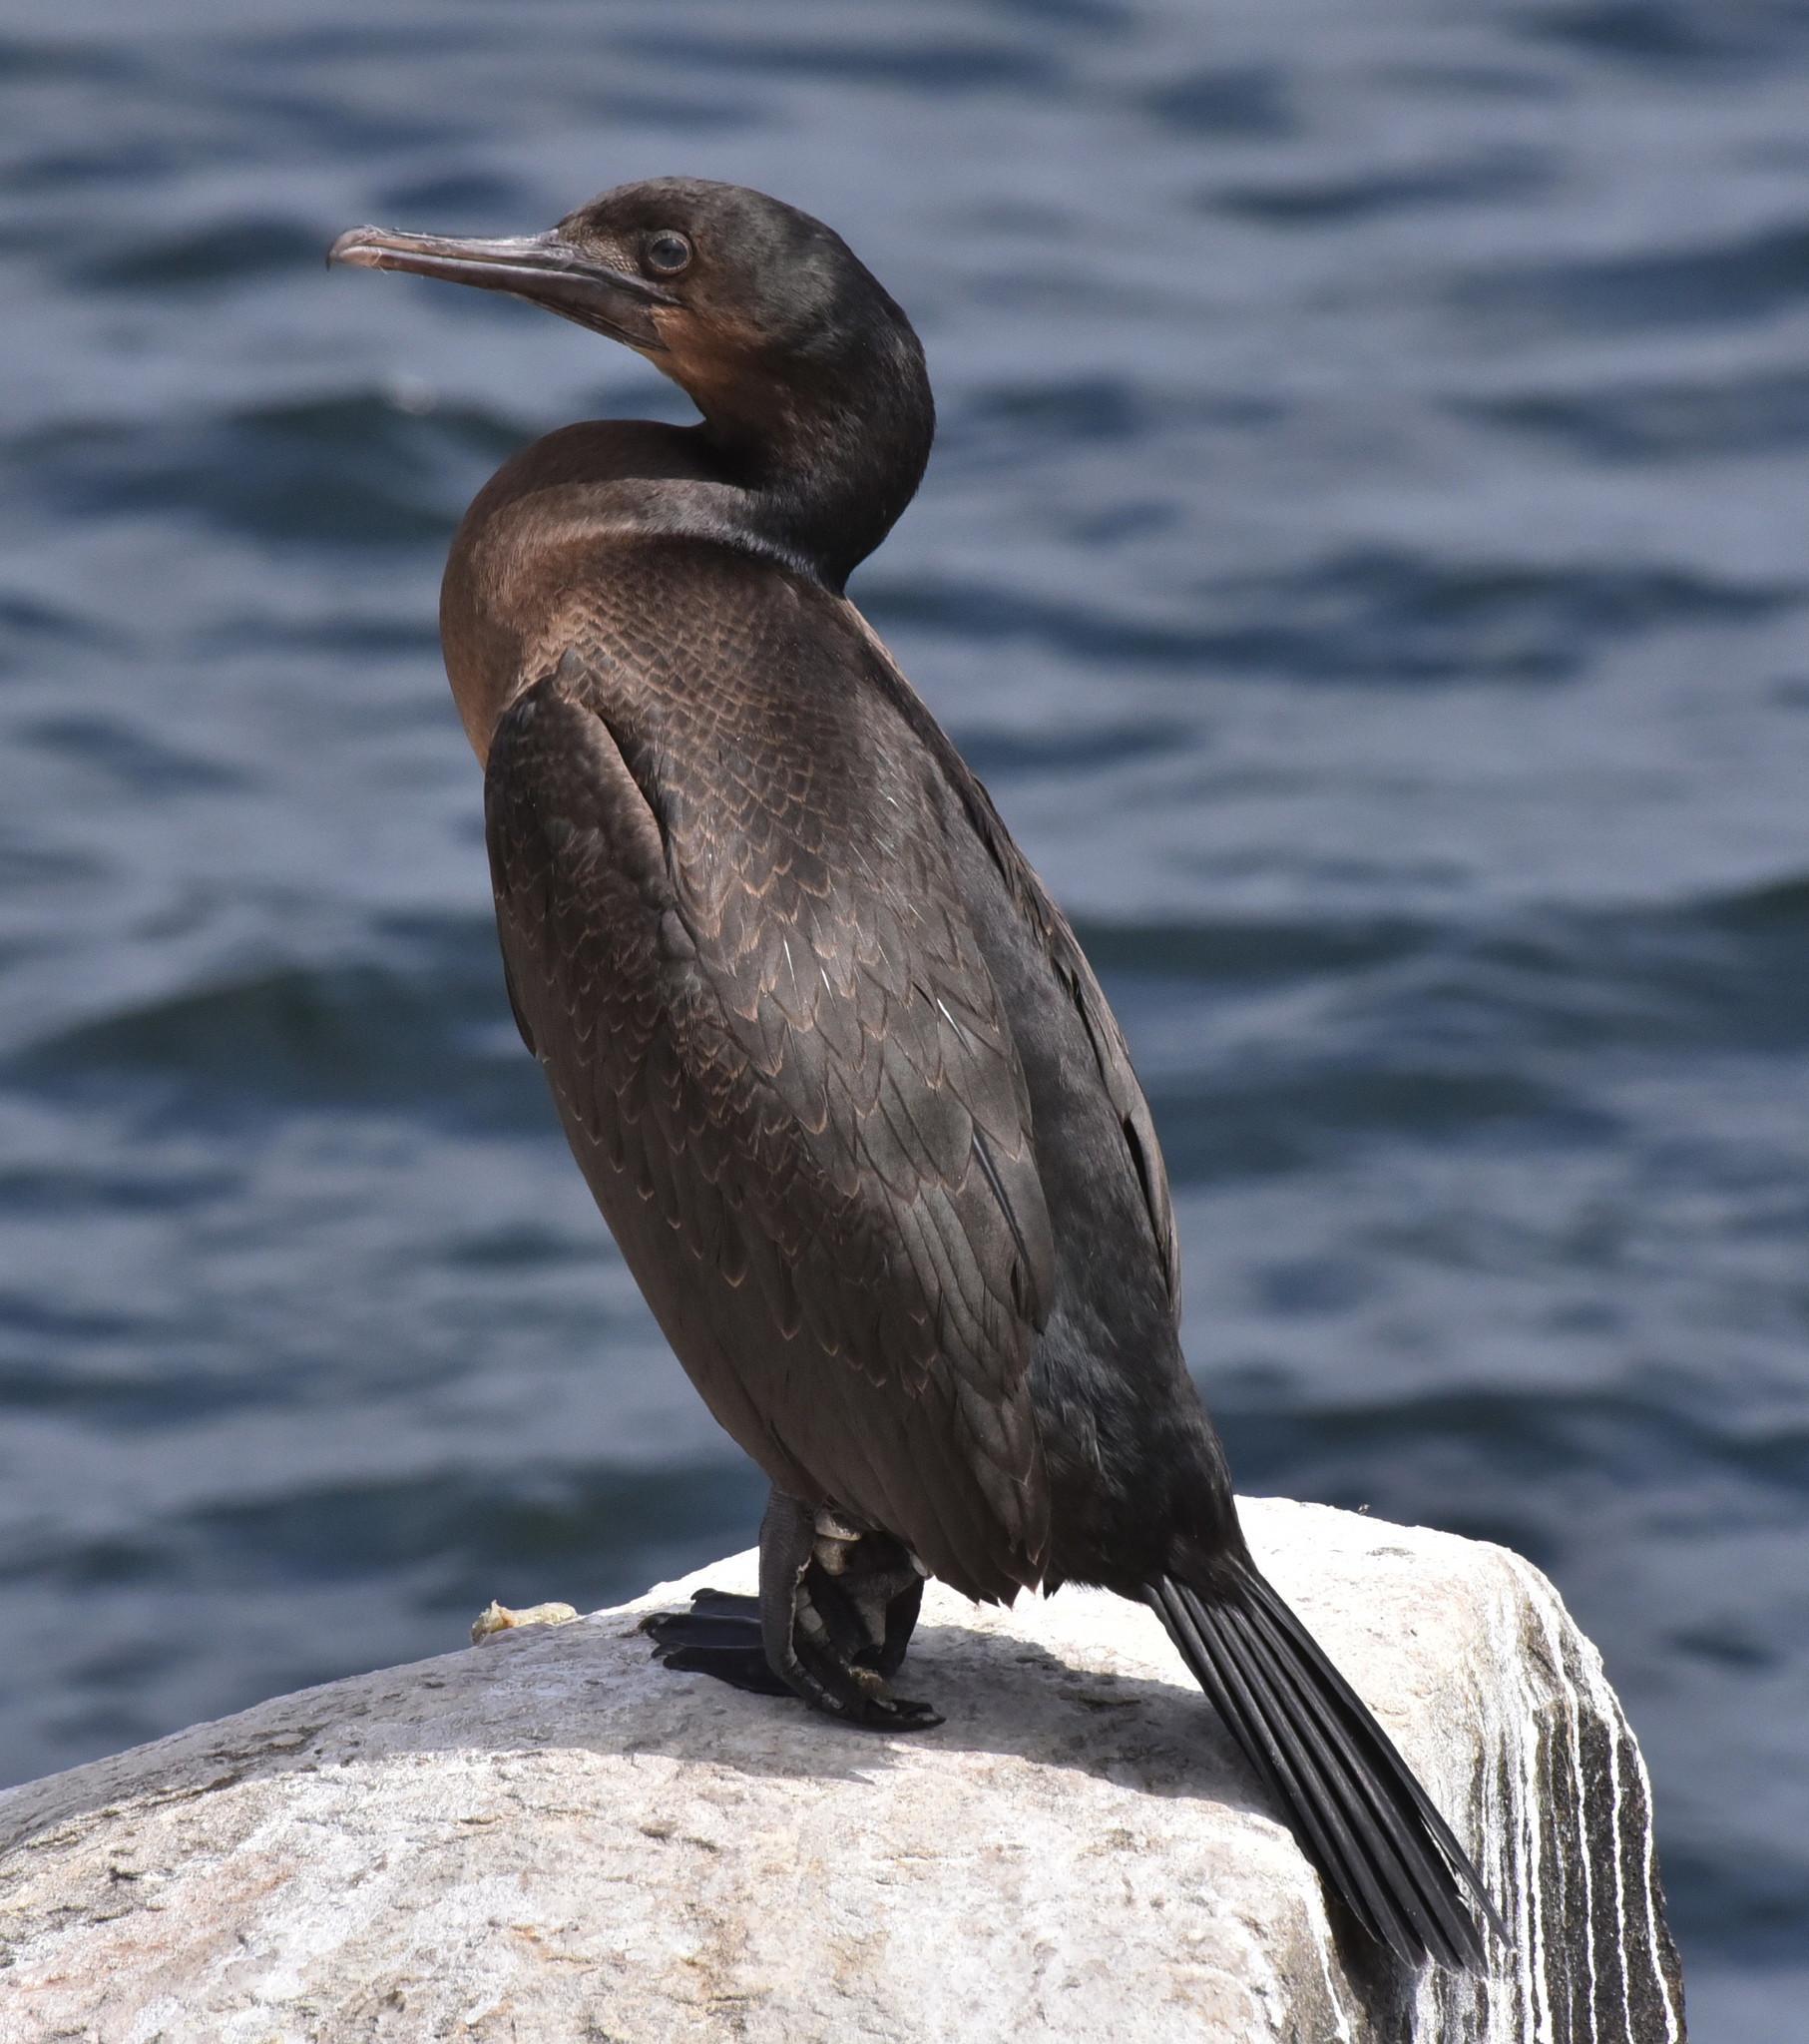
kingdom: Animalia
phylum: Chordata
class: Aves
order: Suliformes
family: Phalacrocoracidae
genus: Urile
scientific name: Urile penicillatus
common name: Brandt's cormorant
